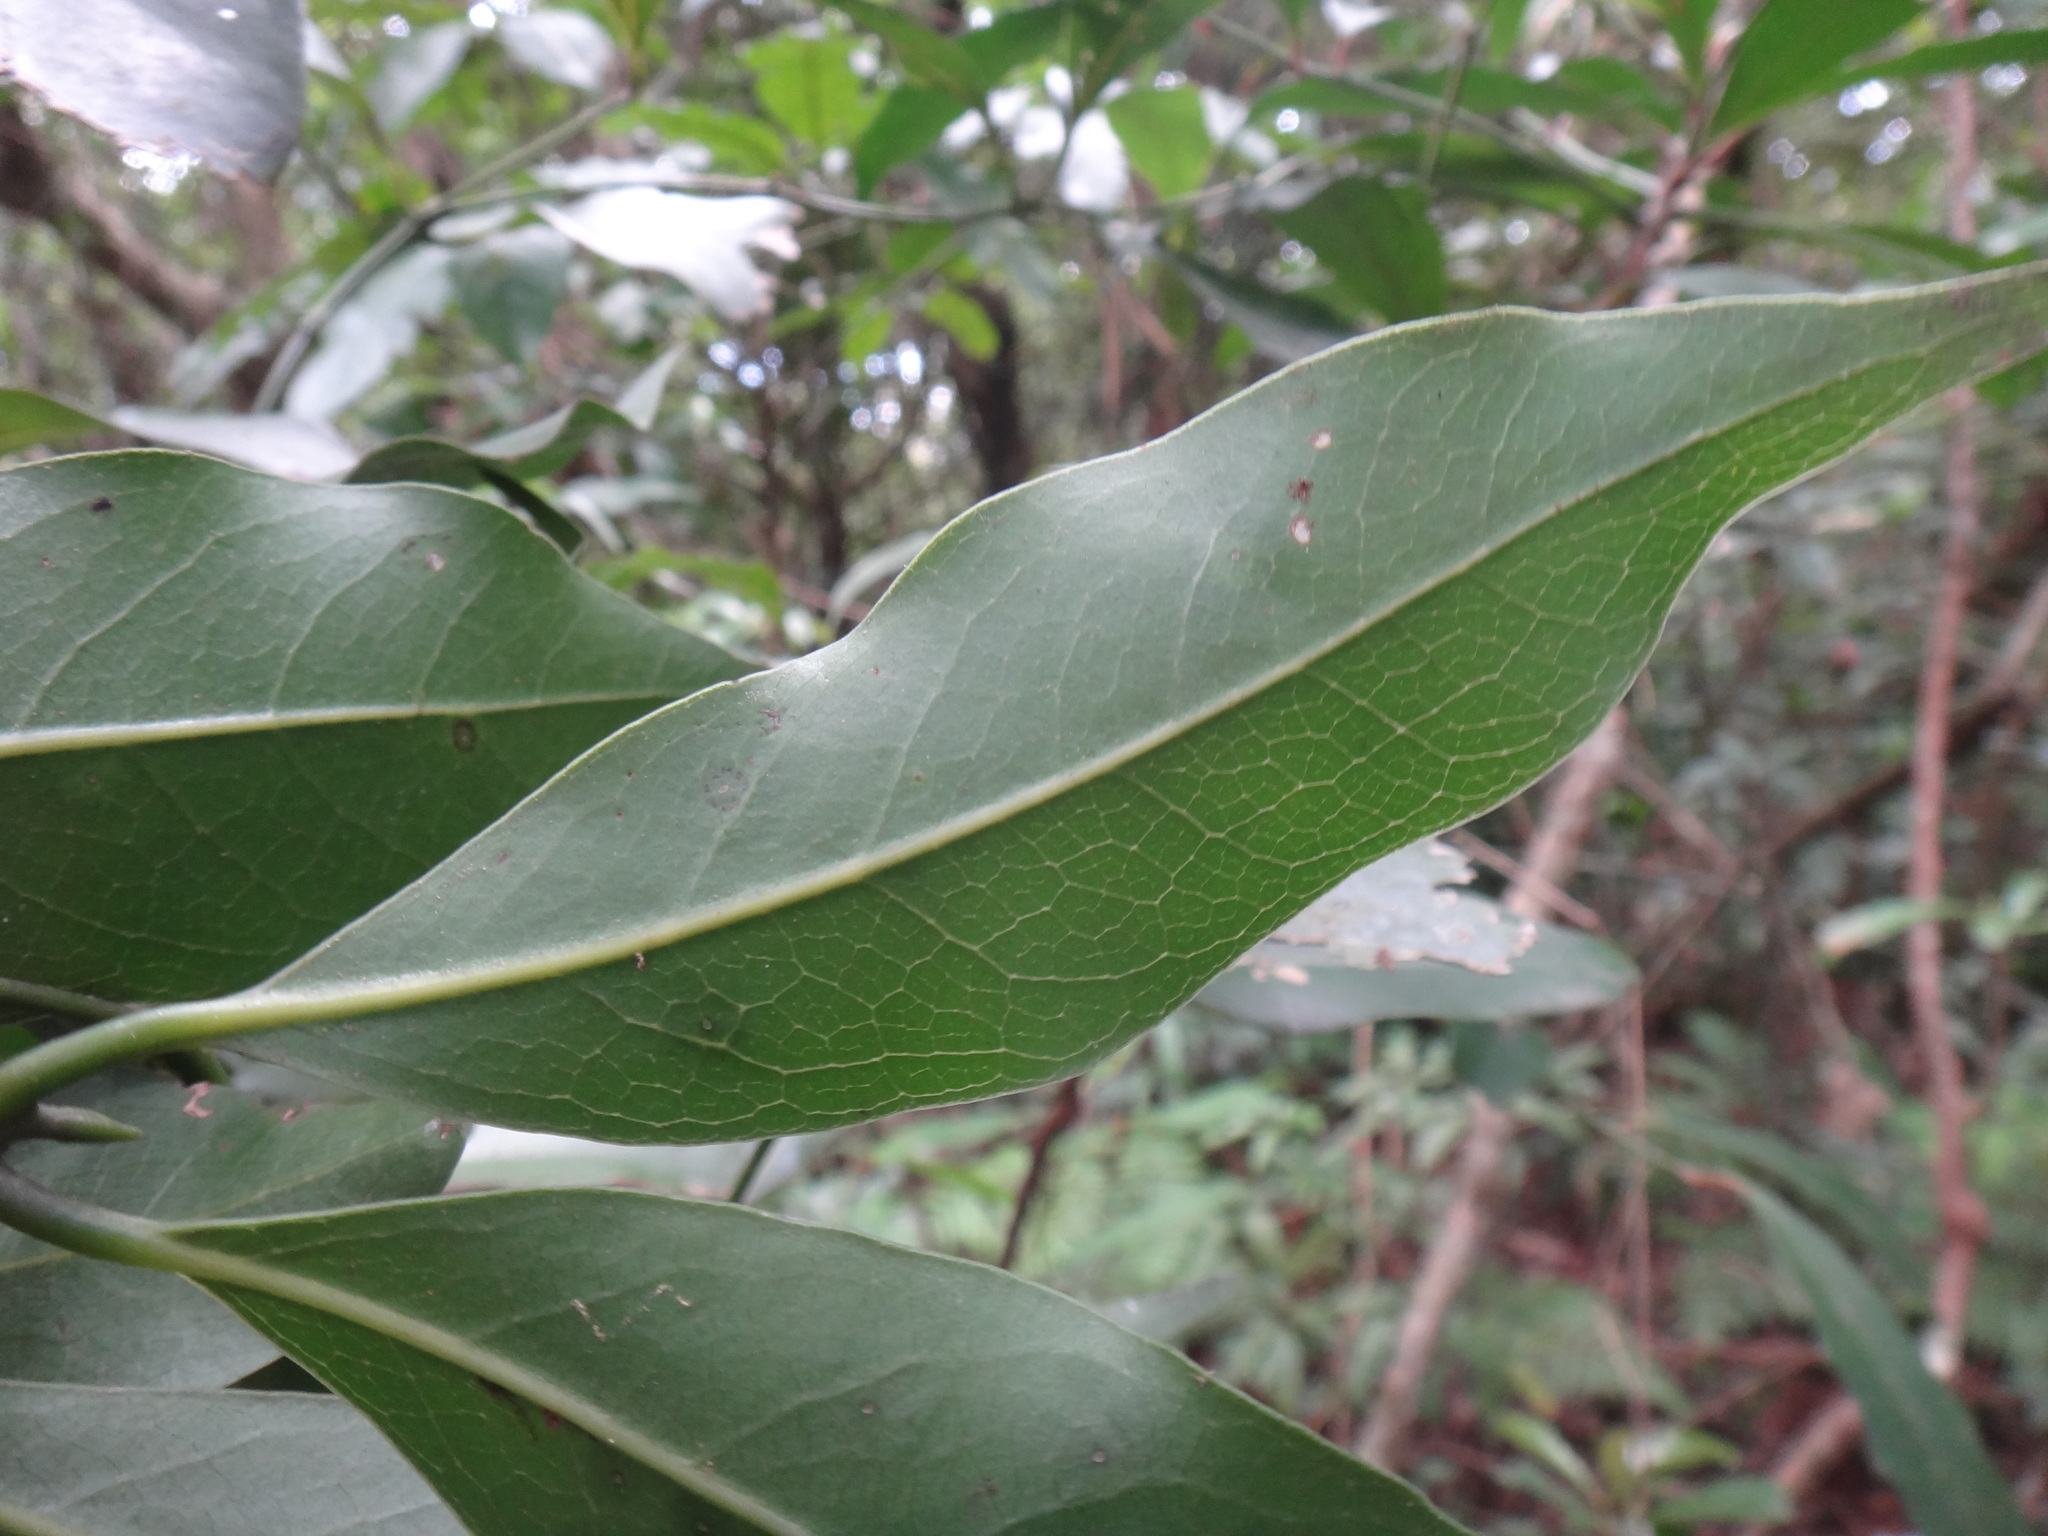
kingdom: Plantae
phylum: Tracheophyta
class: Magnoliopsida
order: Laurales
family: Lauraceae
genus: Beilschmiedia
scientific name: Beilschmiedia erythrophloia
